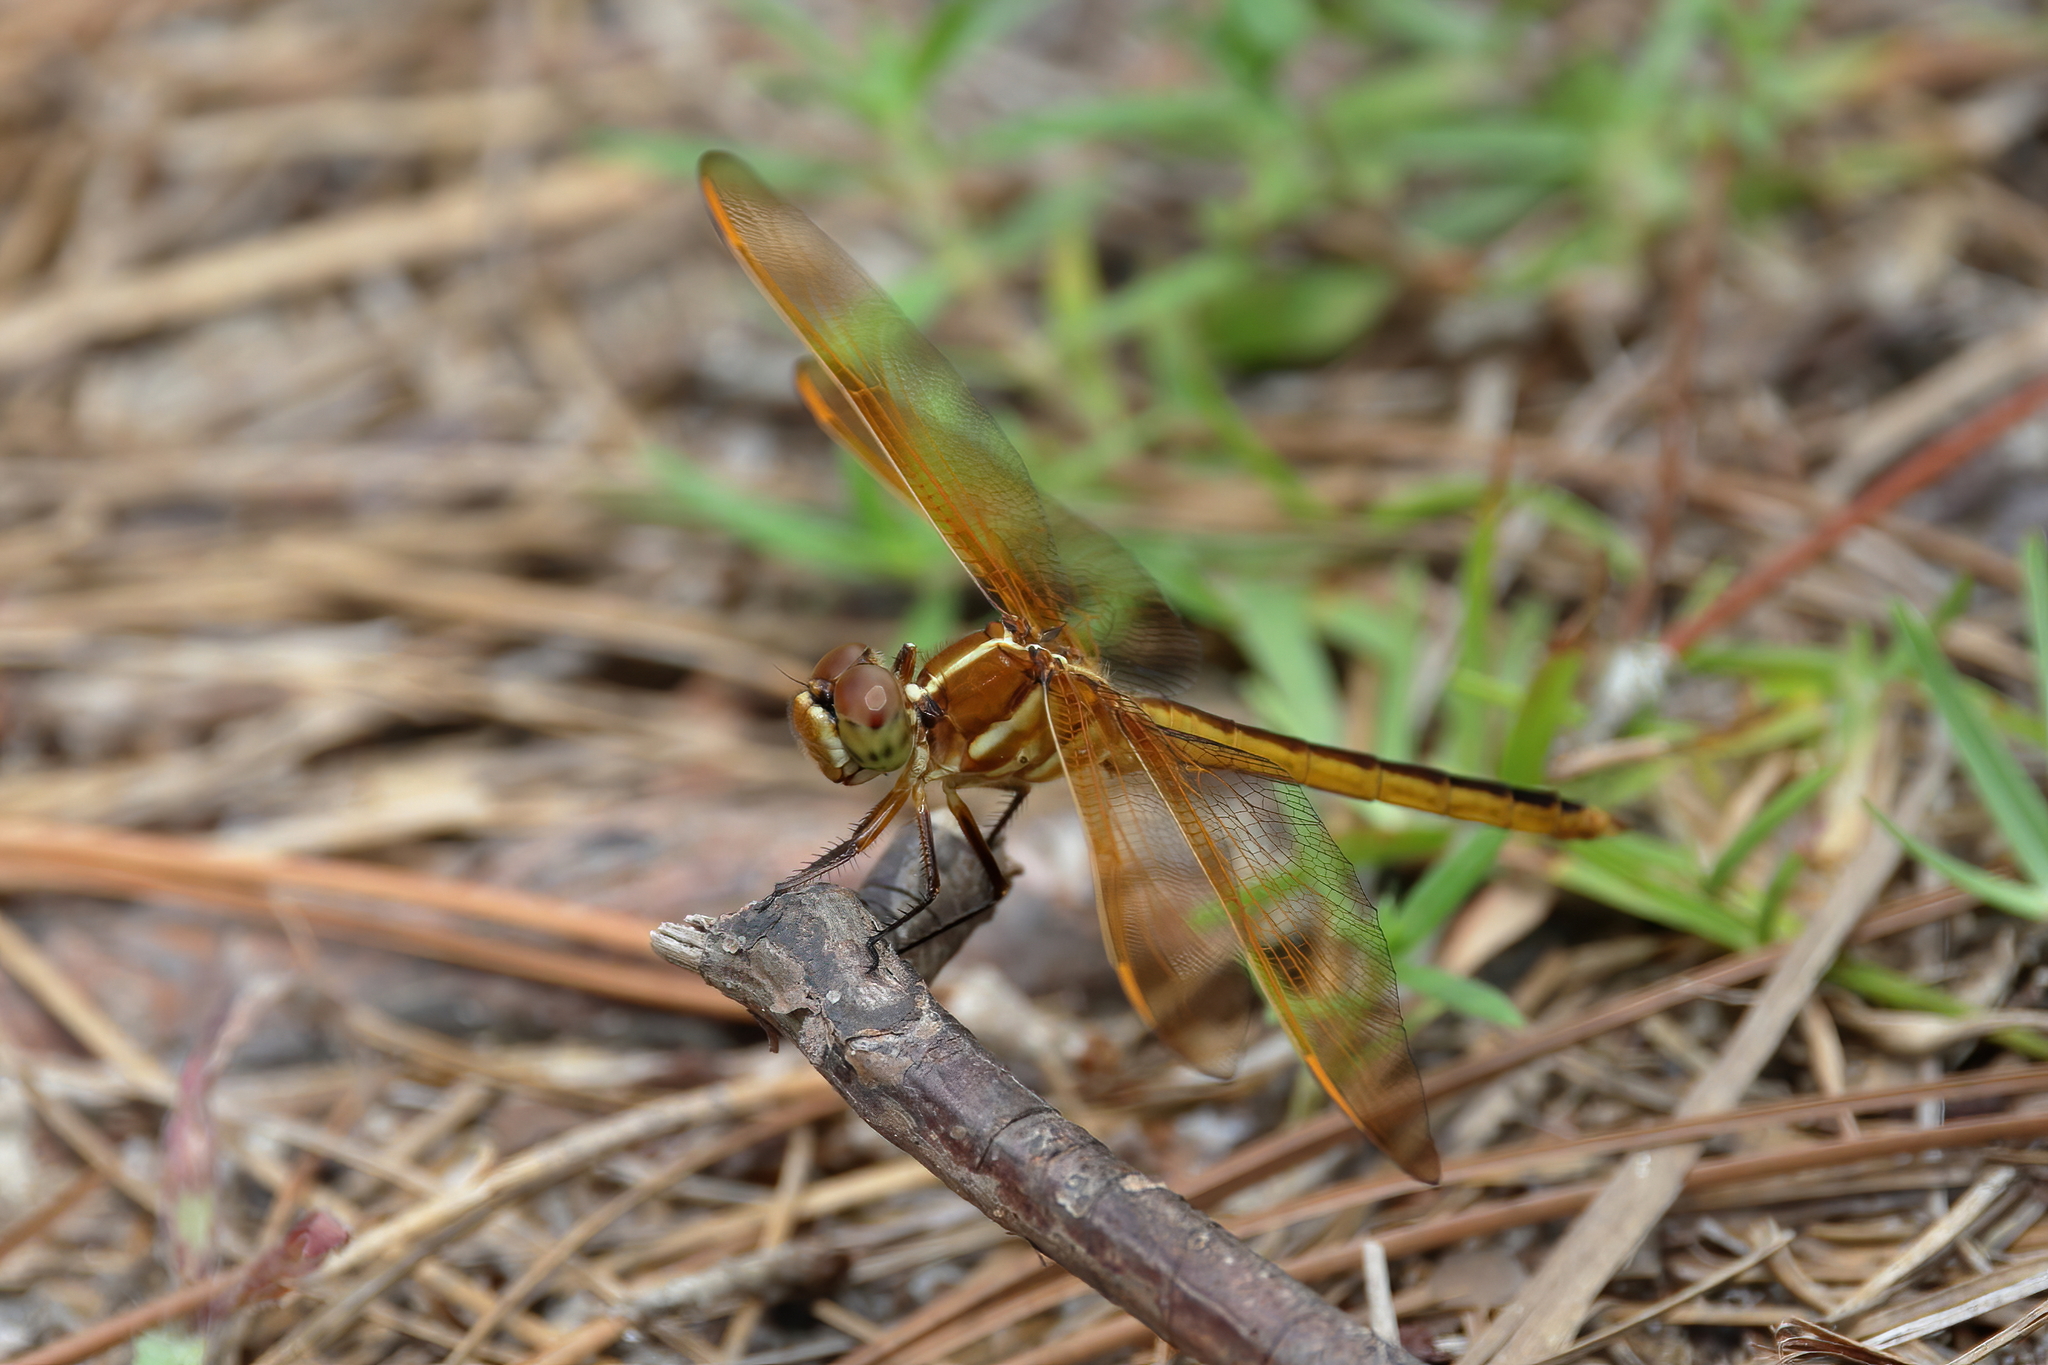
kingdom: Animalia
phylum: Arthropoda
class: Insecta
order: Odonata
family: Libellulidae
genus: Libellula
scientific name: Libellula auripennis
